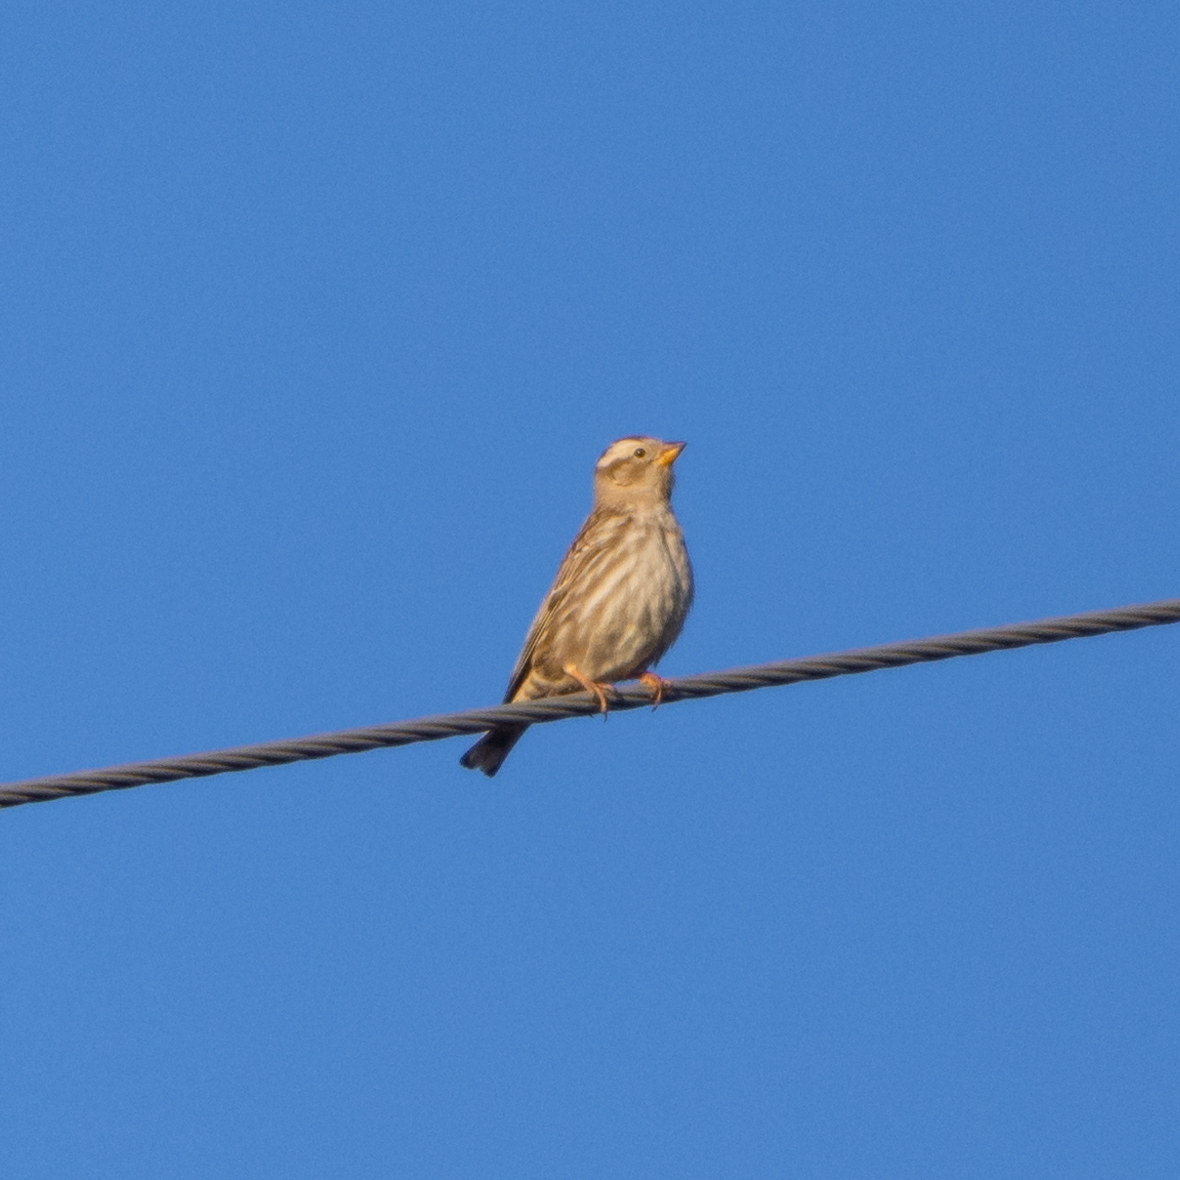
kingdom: Animalia
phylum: Chordata
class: Aves
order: Passeriformes
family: Passeridae
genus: Petronia
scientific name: Petronia petronia
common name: Rock sparrow
